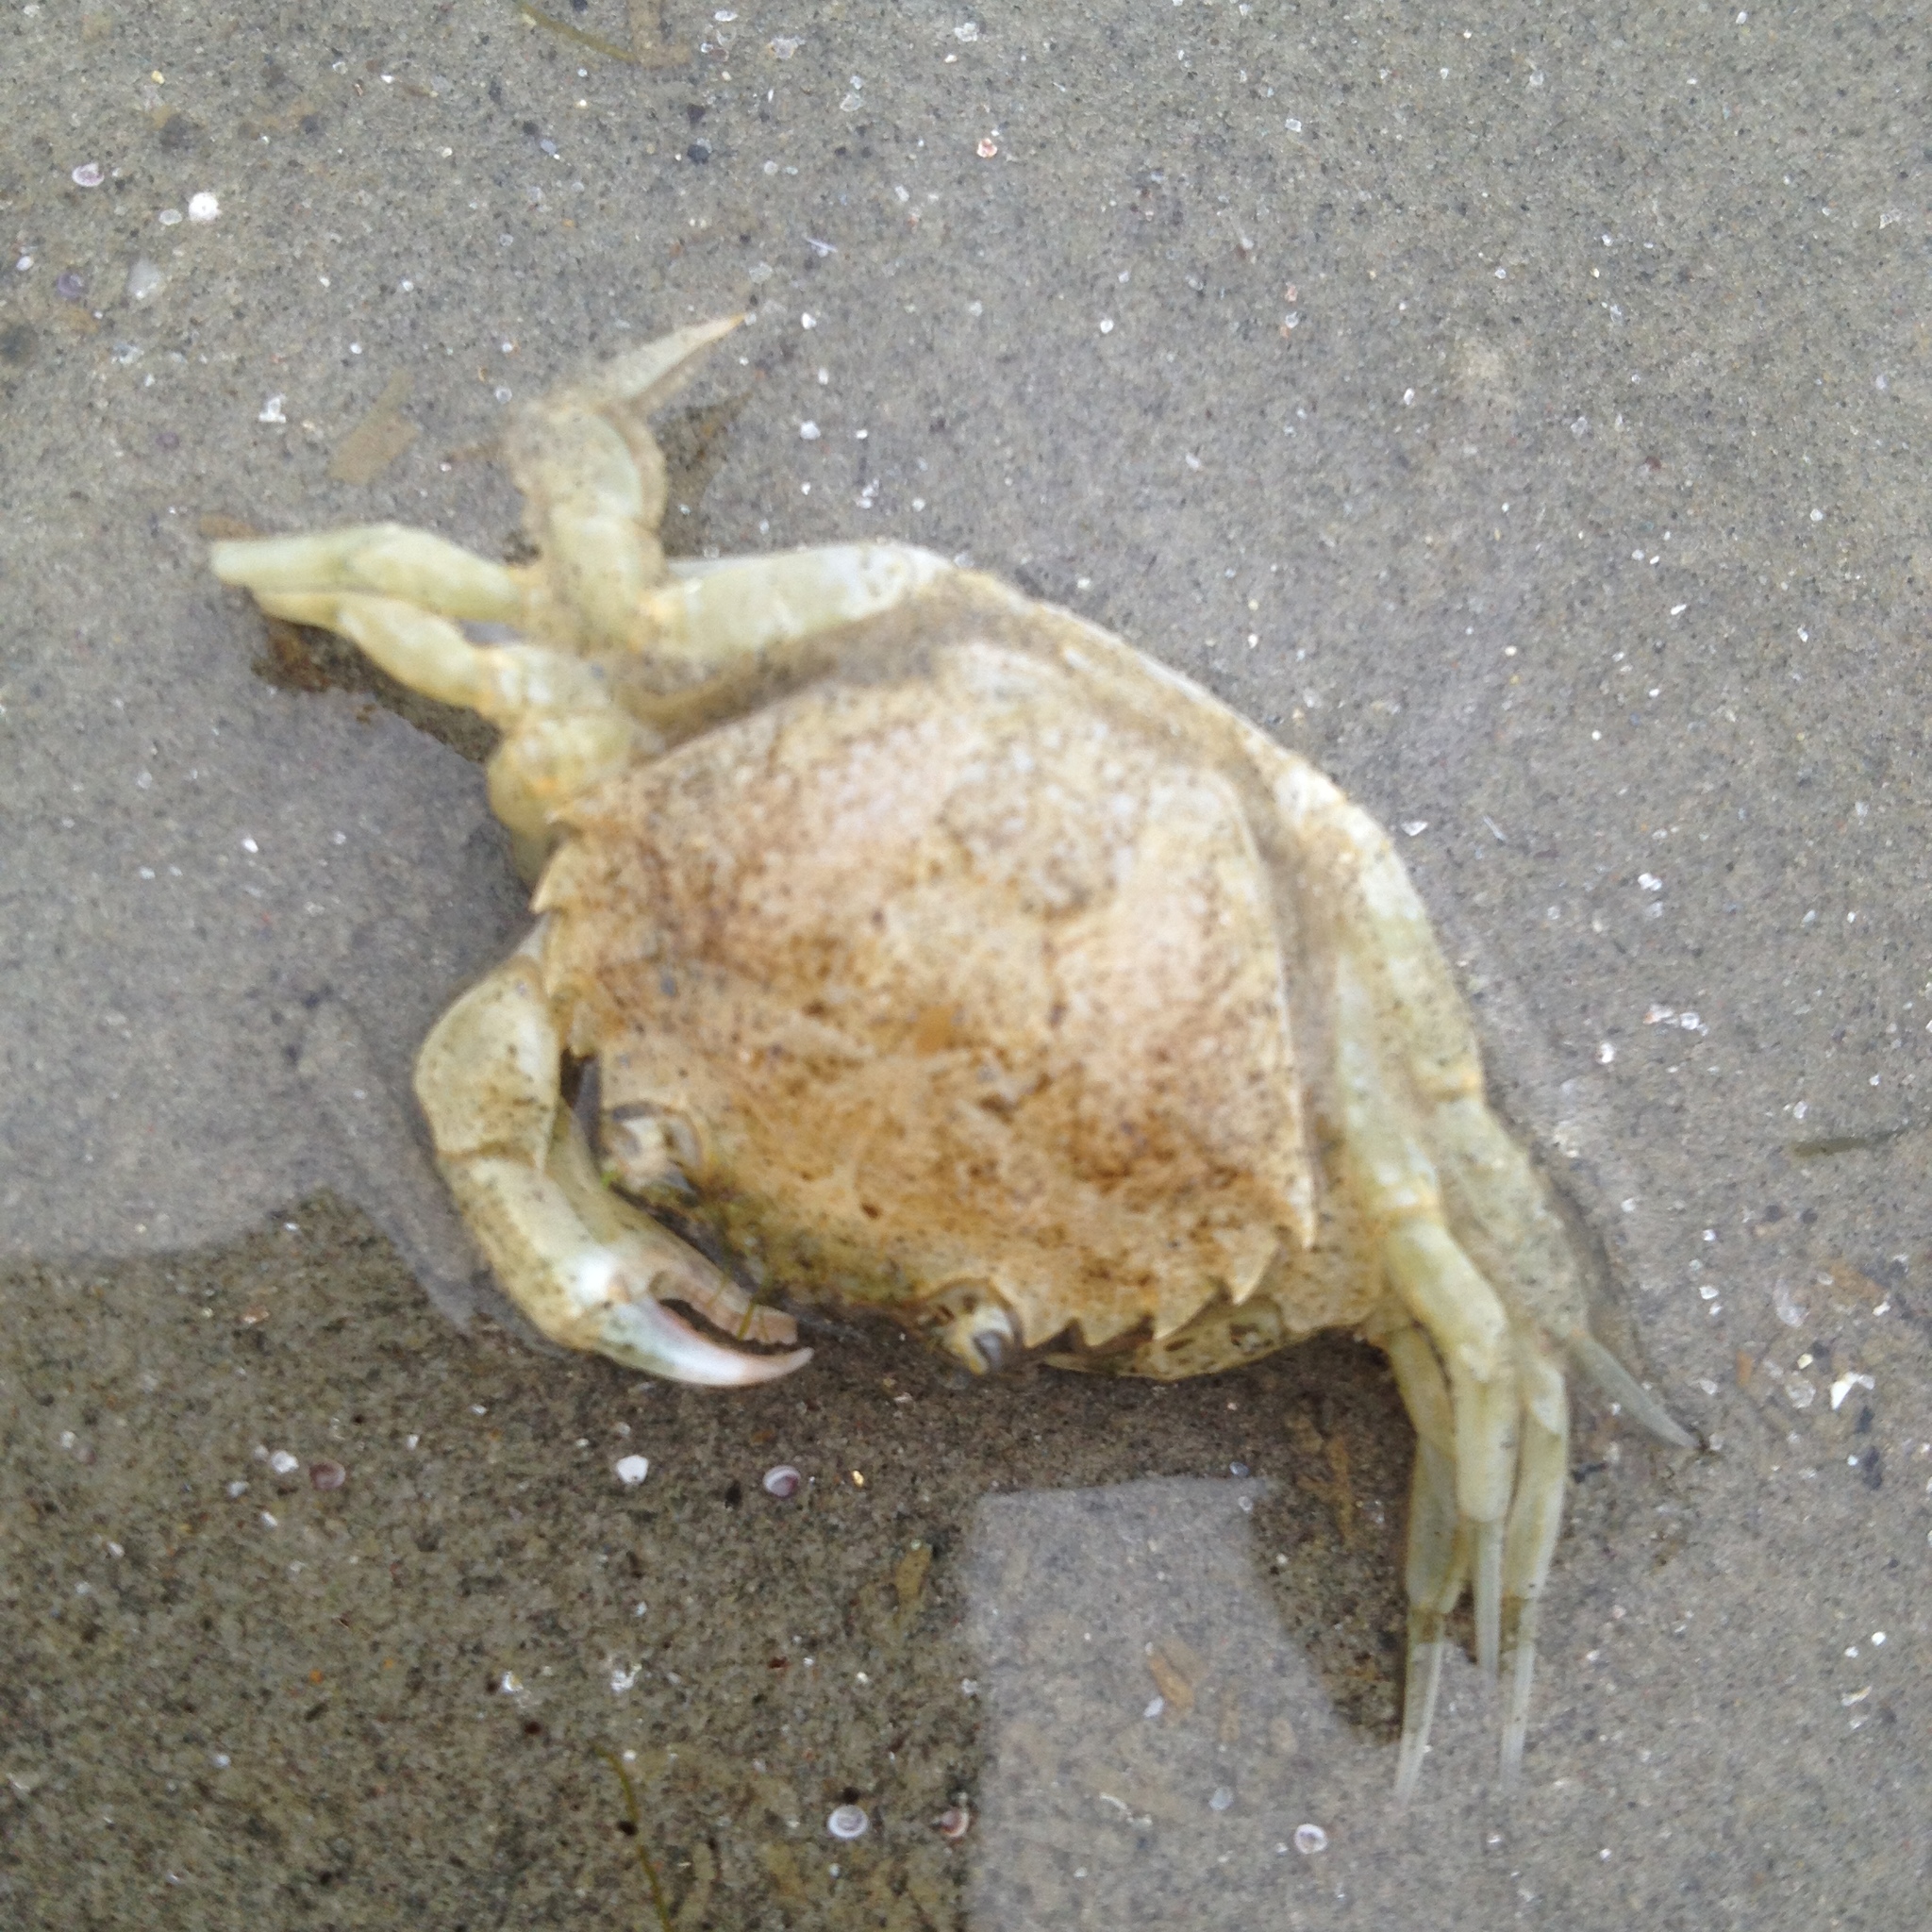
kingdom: Animalia
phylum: Arthropoda
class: Malacostraca
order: Decapoda
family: Carcinidae
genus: Carcinus
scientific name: Carcinus maenas
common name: European green crab
